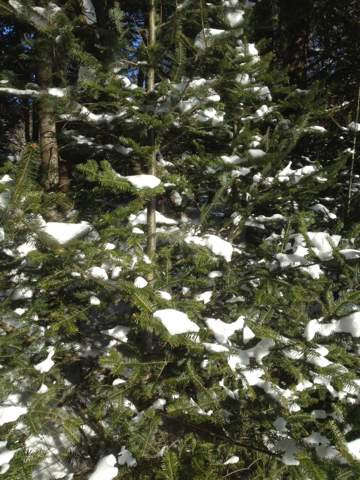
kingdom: Plantae
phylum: Tracheophyta
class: Pinopsida
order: Pinales
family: Pinaceae
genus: Abies
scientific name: Abies balsamea
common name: Balsam fir
